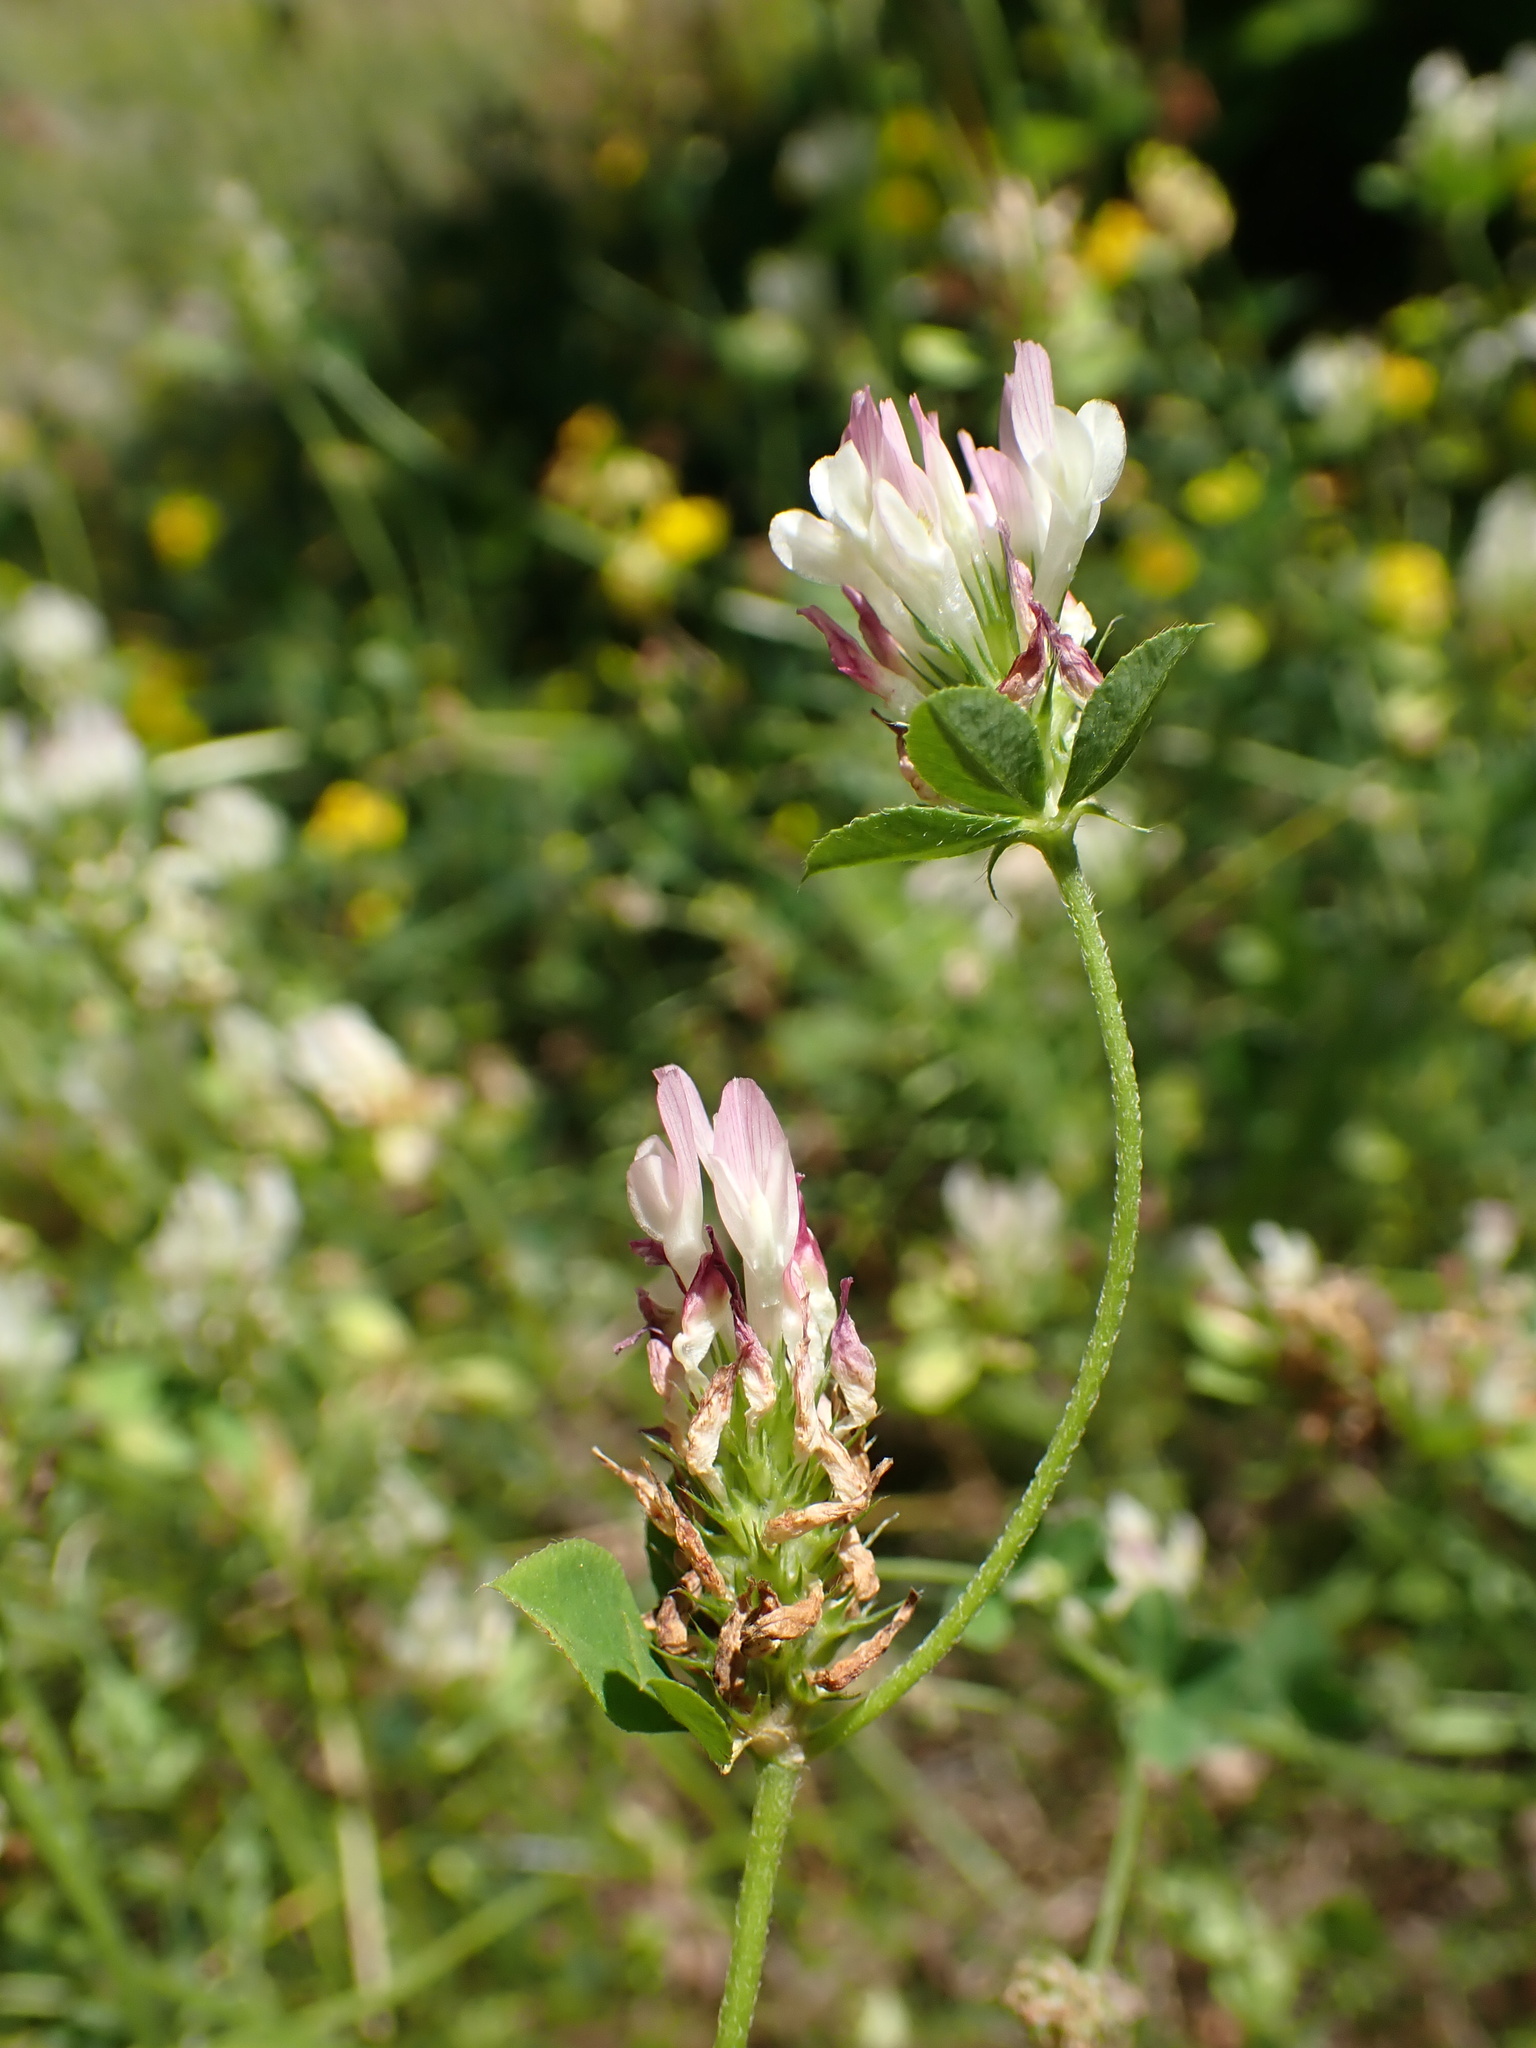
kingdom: Plantae
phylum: Tracheophyta
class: Magnoliopsida
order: Fabales
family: Fabaceae
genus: Trifolium
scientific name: Trifolium dalmaticum
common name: Dalmatian clover
